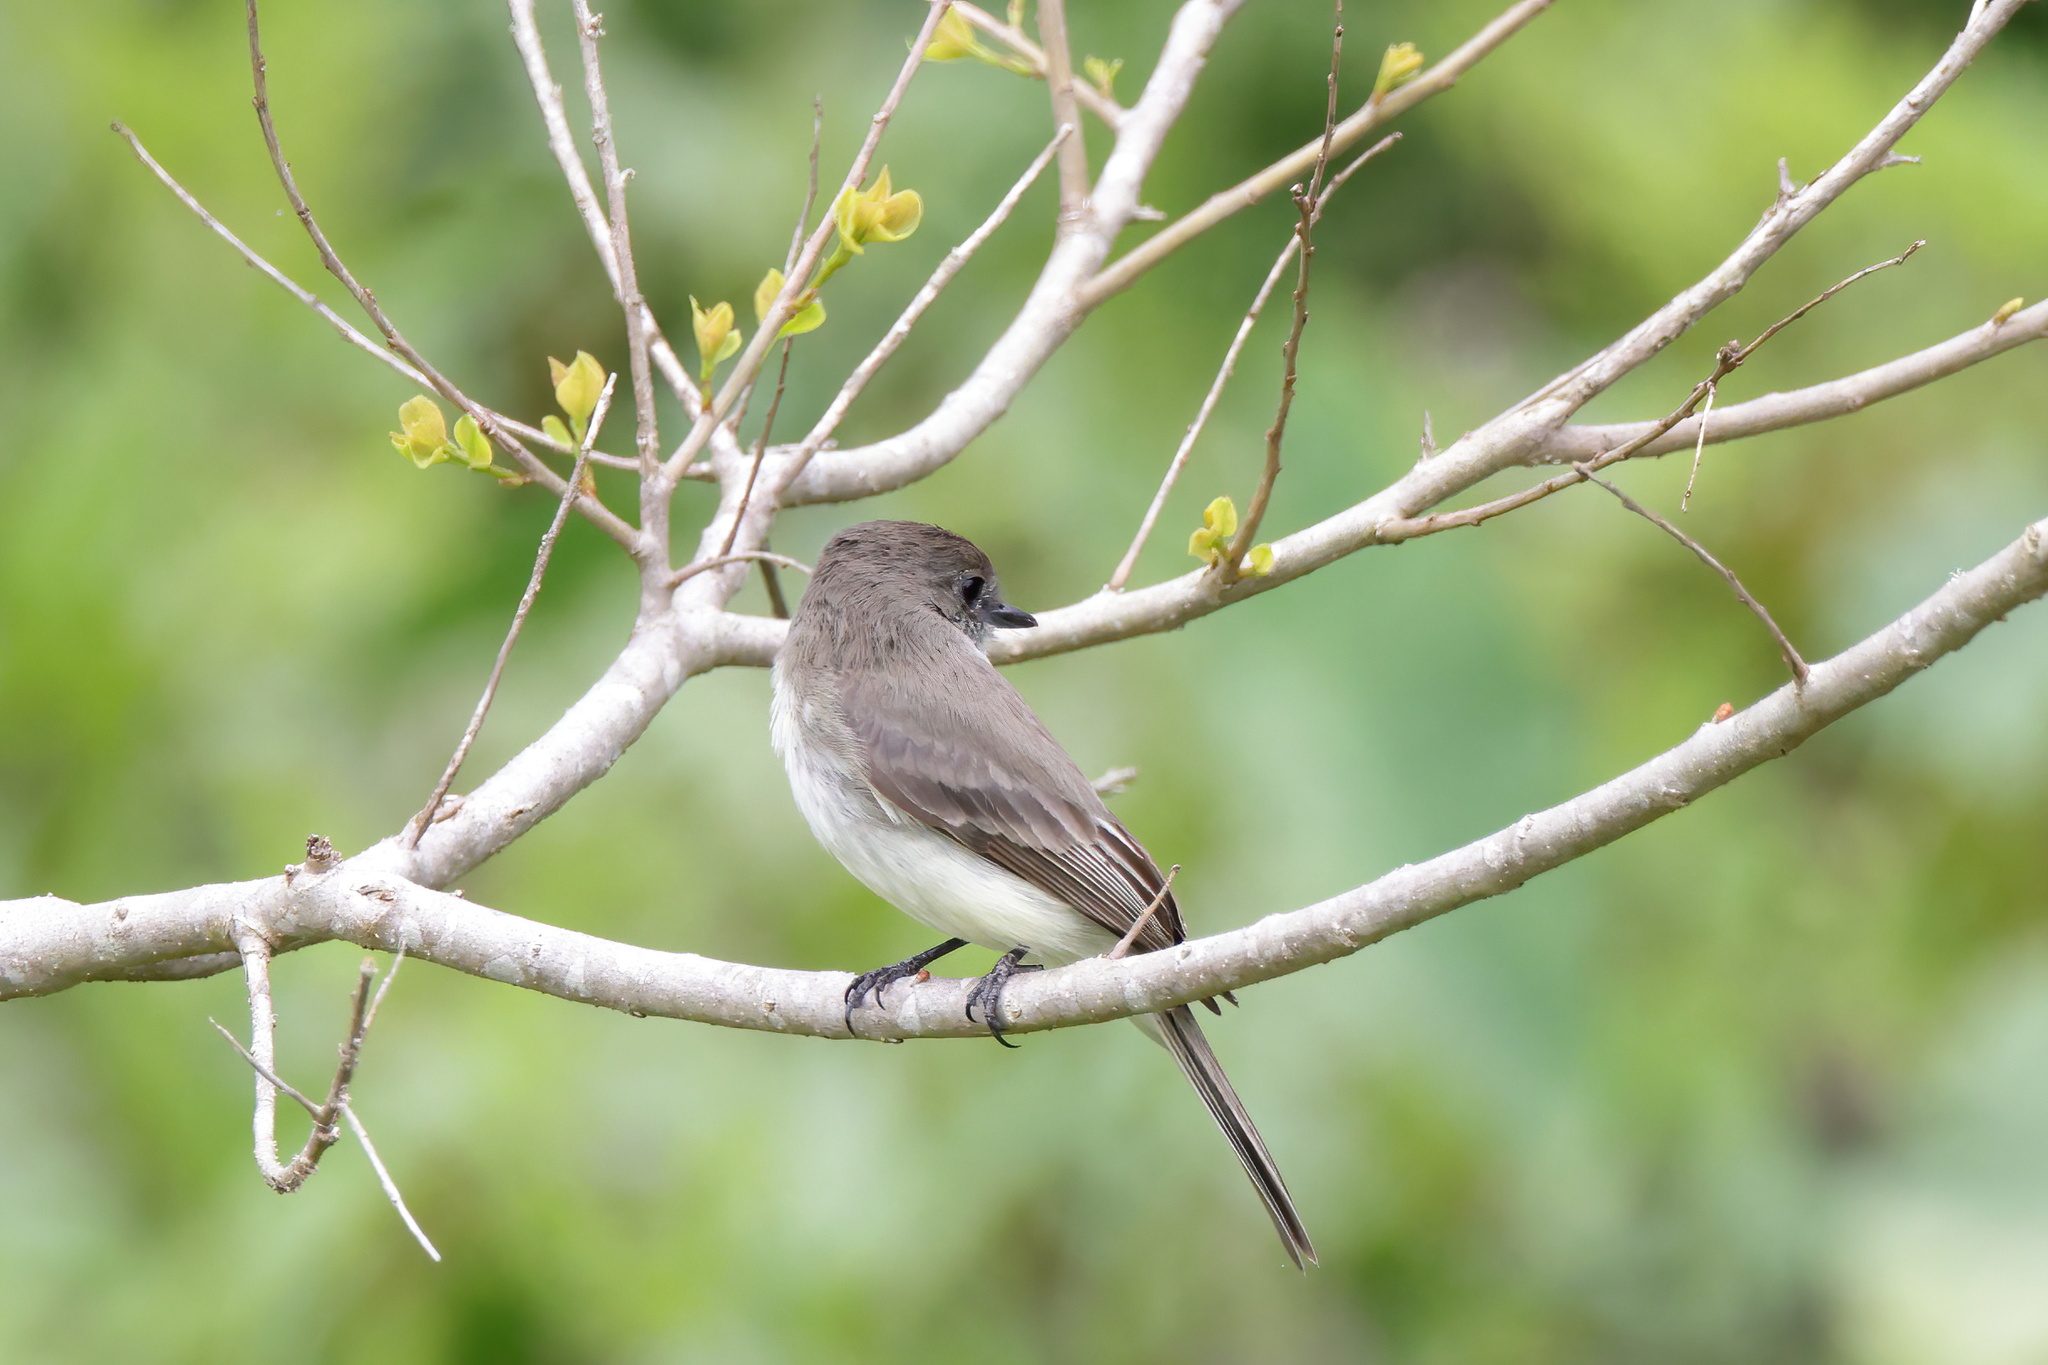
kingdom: Animalia
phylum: Chordata
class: Aves
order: Passeriformes
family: Tyrannidae
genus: Sayornis
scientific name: Sayornis phoebe
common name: Eastern phoebe
